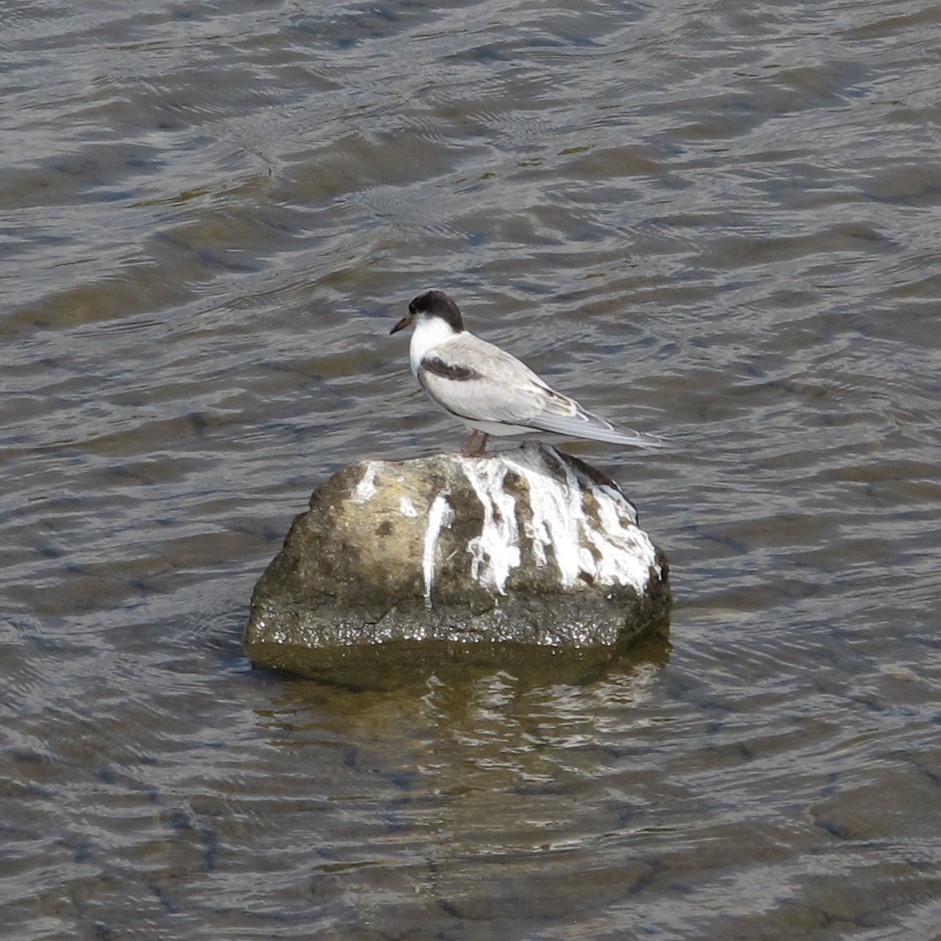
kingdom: Animalia
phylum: Chordata
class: Aves
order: Charadriiformes
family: Laridae
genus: Sterna
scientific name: Sterna hirundo
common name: Common tern
